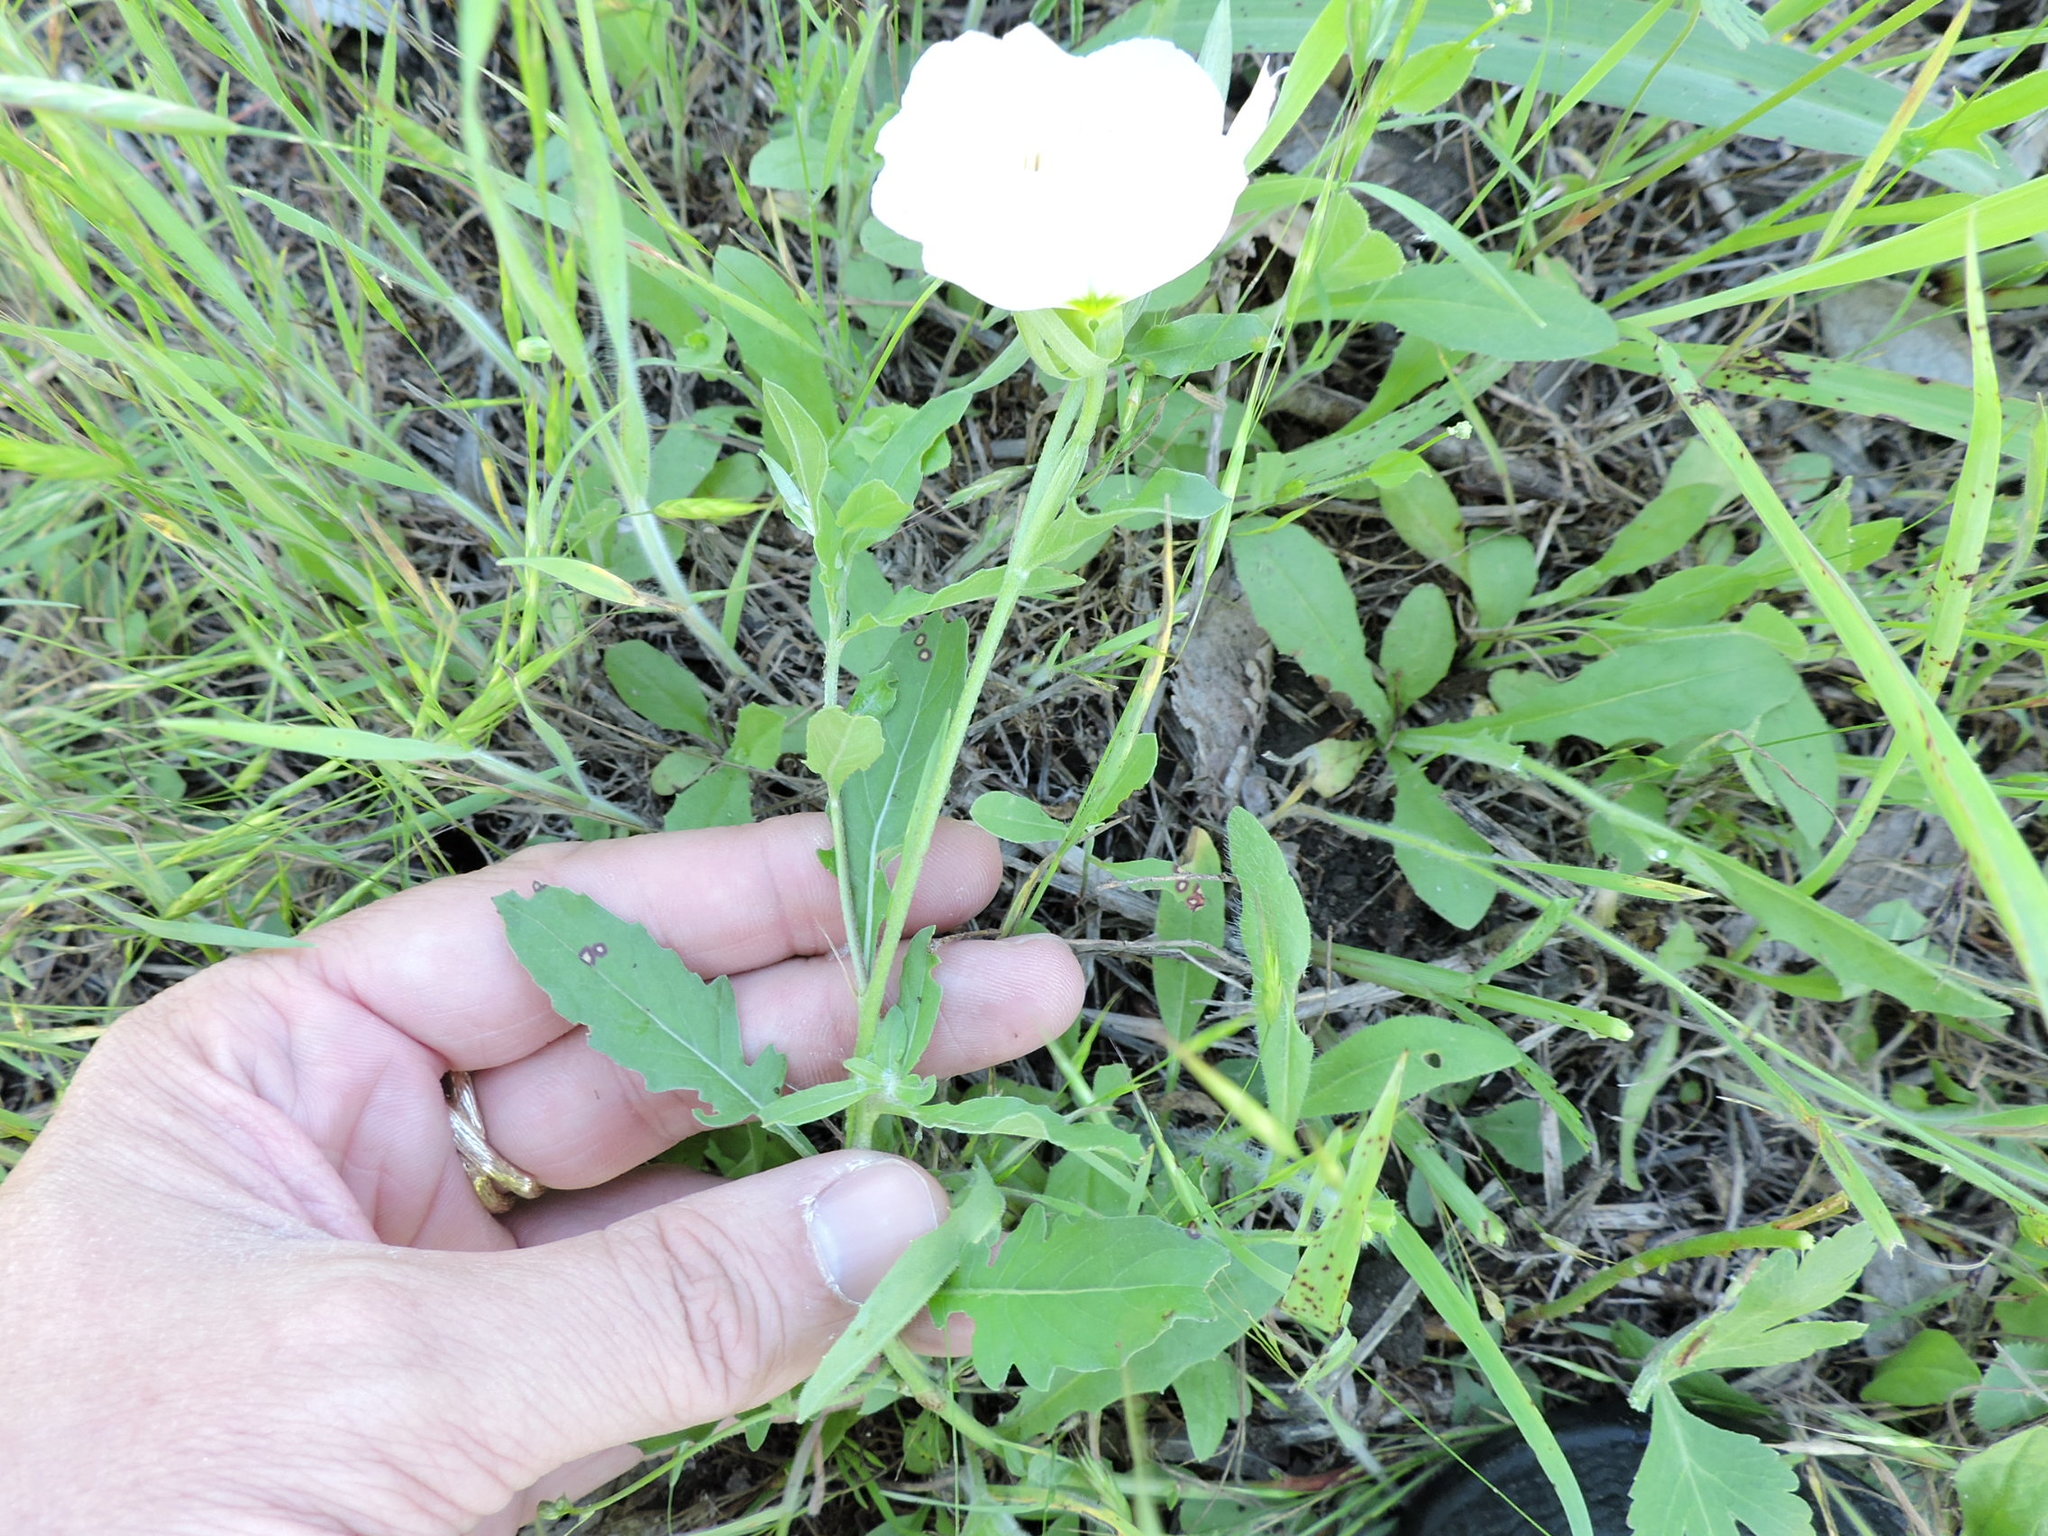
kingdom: Plantae
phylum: Tracheophyta
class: Magnoliopsida
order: Myrtales
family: Onagraceae
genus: Oenothera
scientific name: Oenothera speciosa
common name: White evening-primrose
